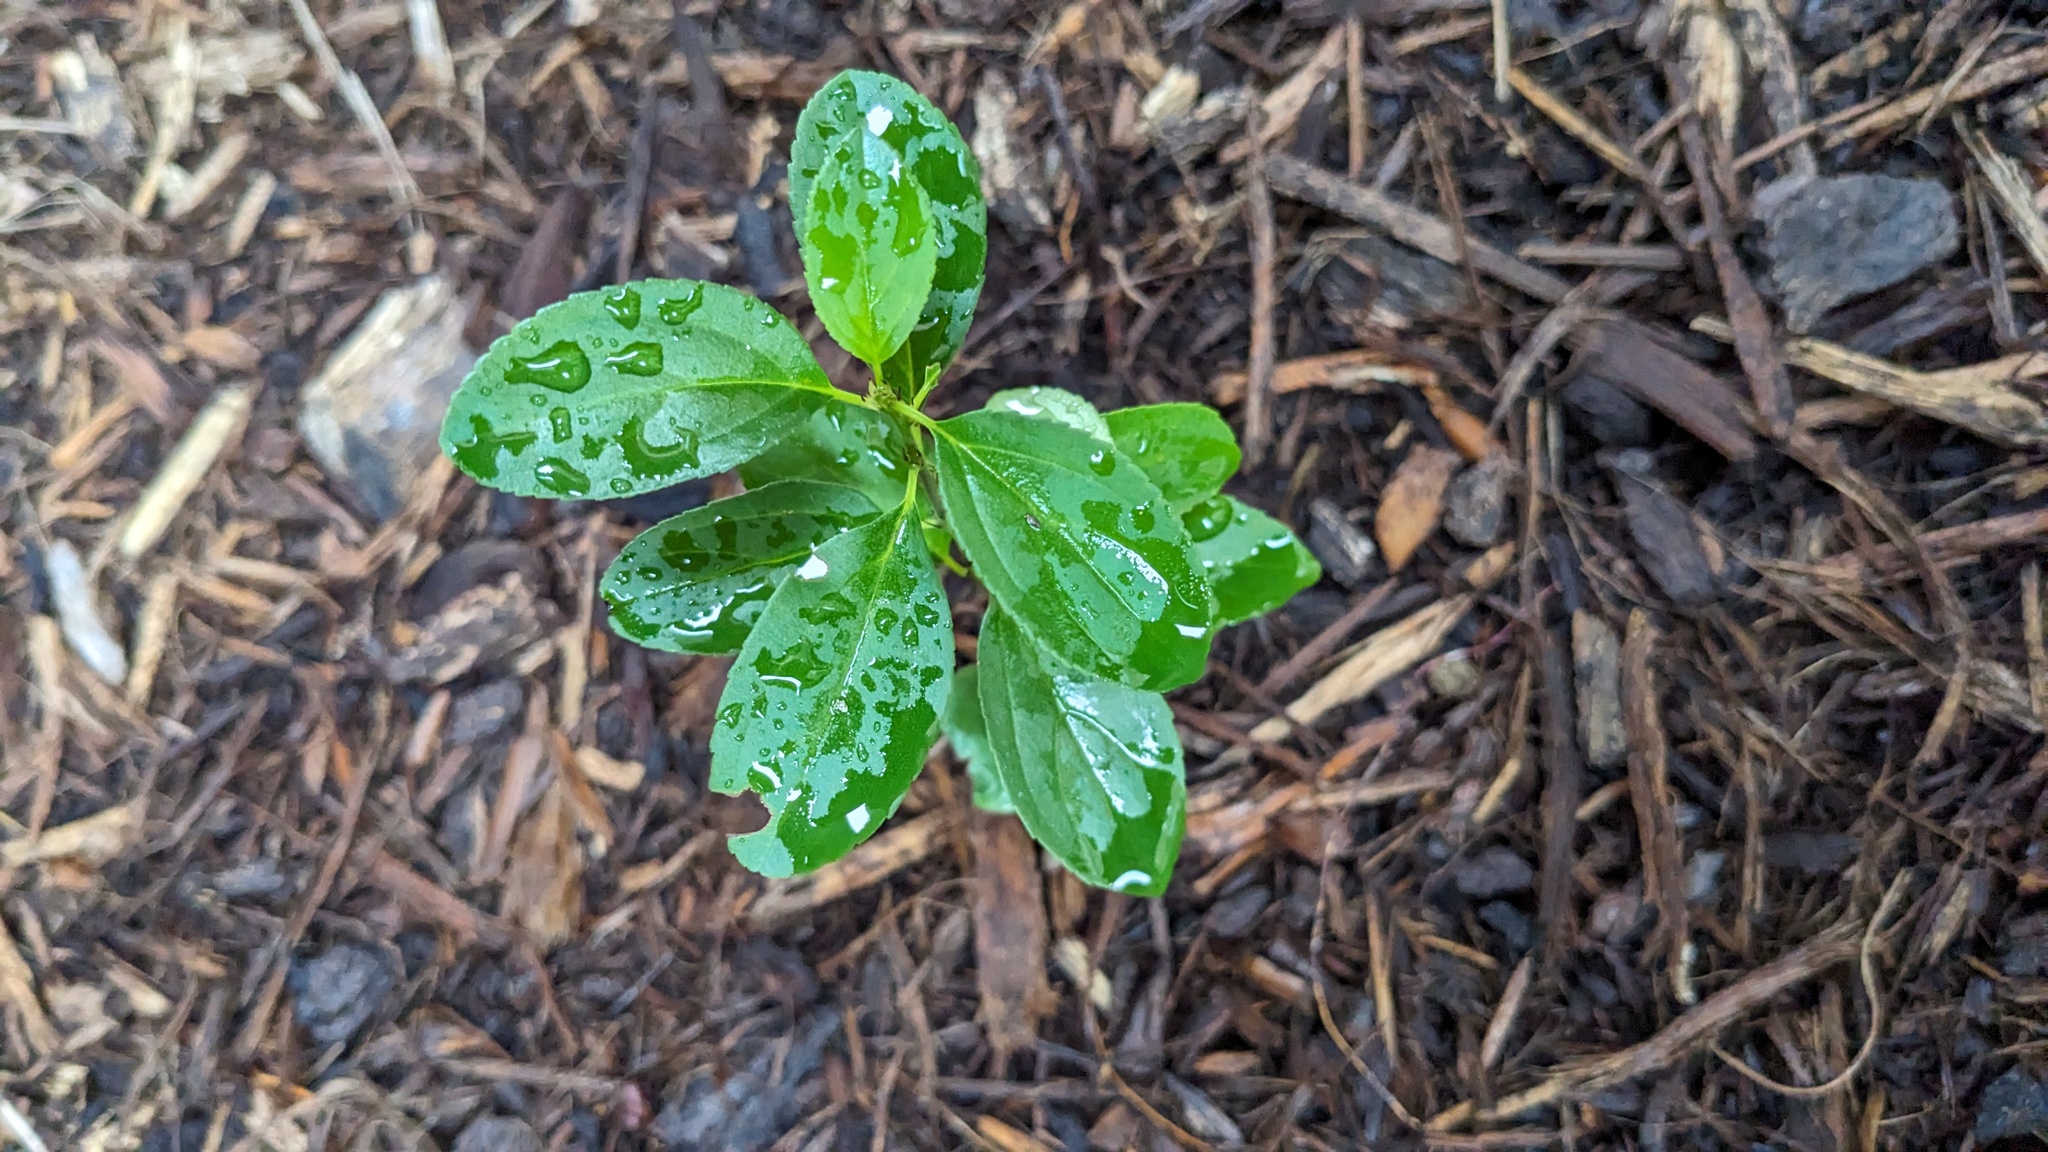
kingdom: Plantae
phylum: Tracheophyta
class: Magnoliopsida
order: Rosales
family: Rhamnaceae
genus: Rhamnus
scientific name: Rhamnus cathartica
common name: Common buckthorn
